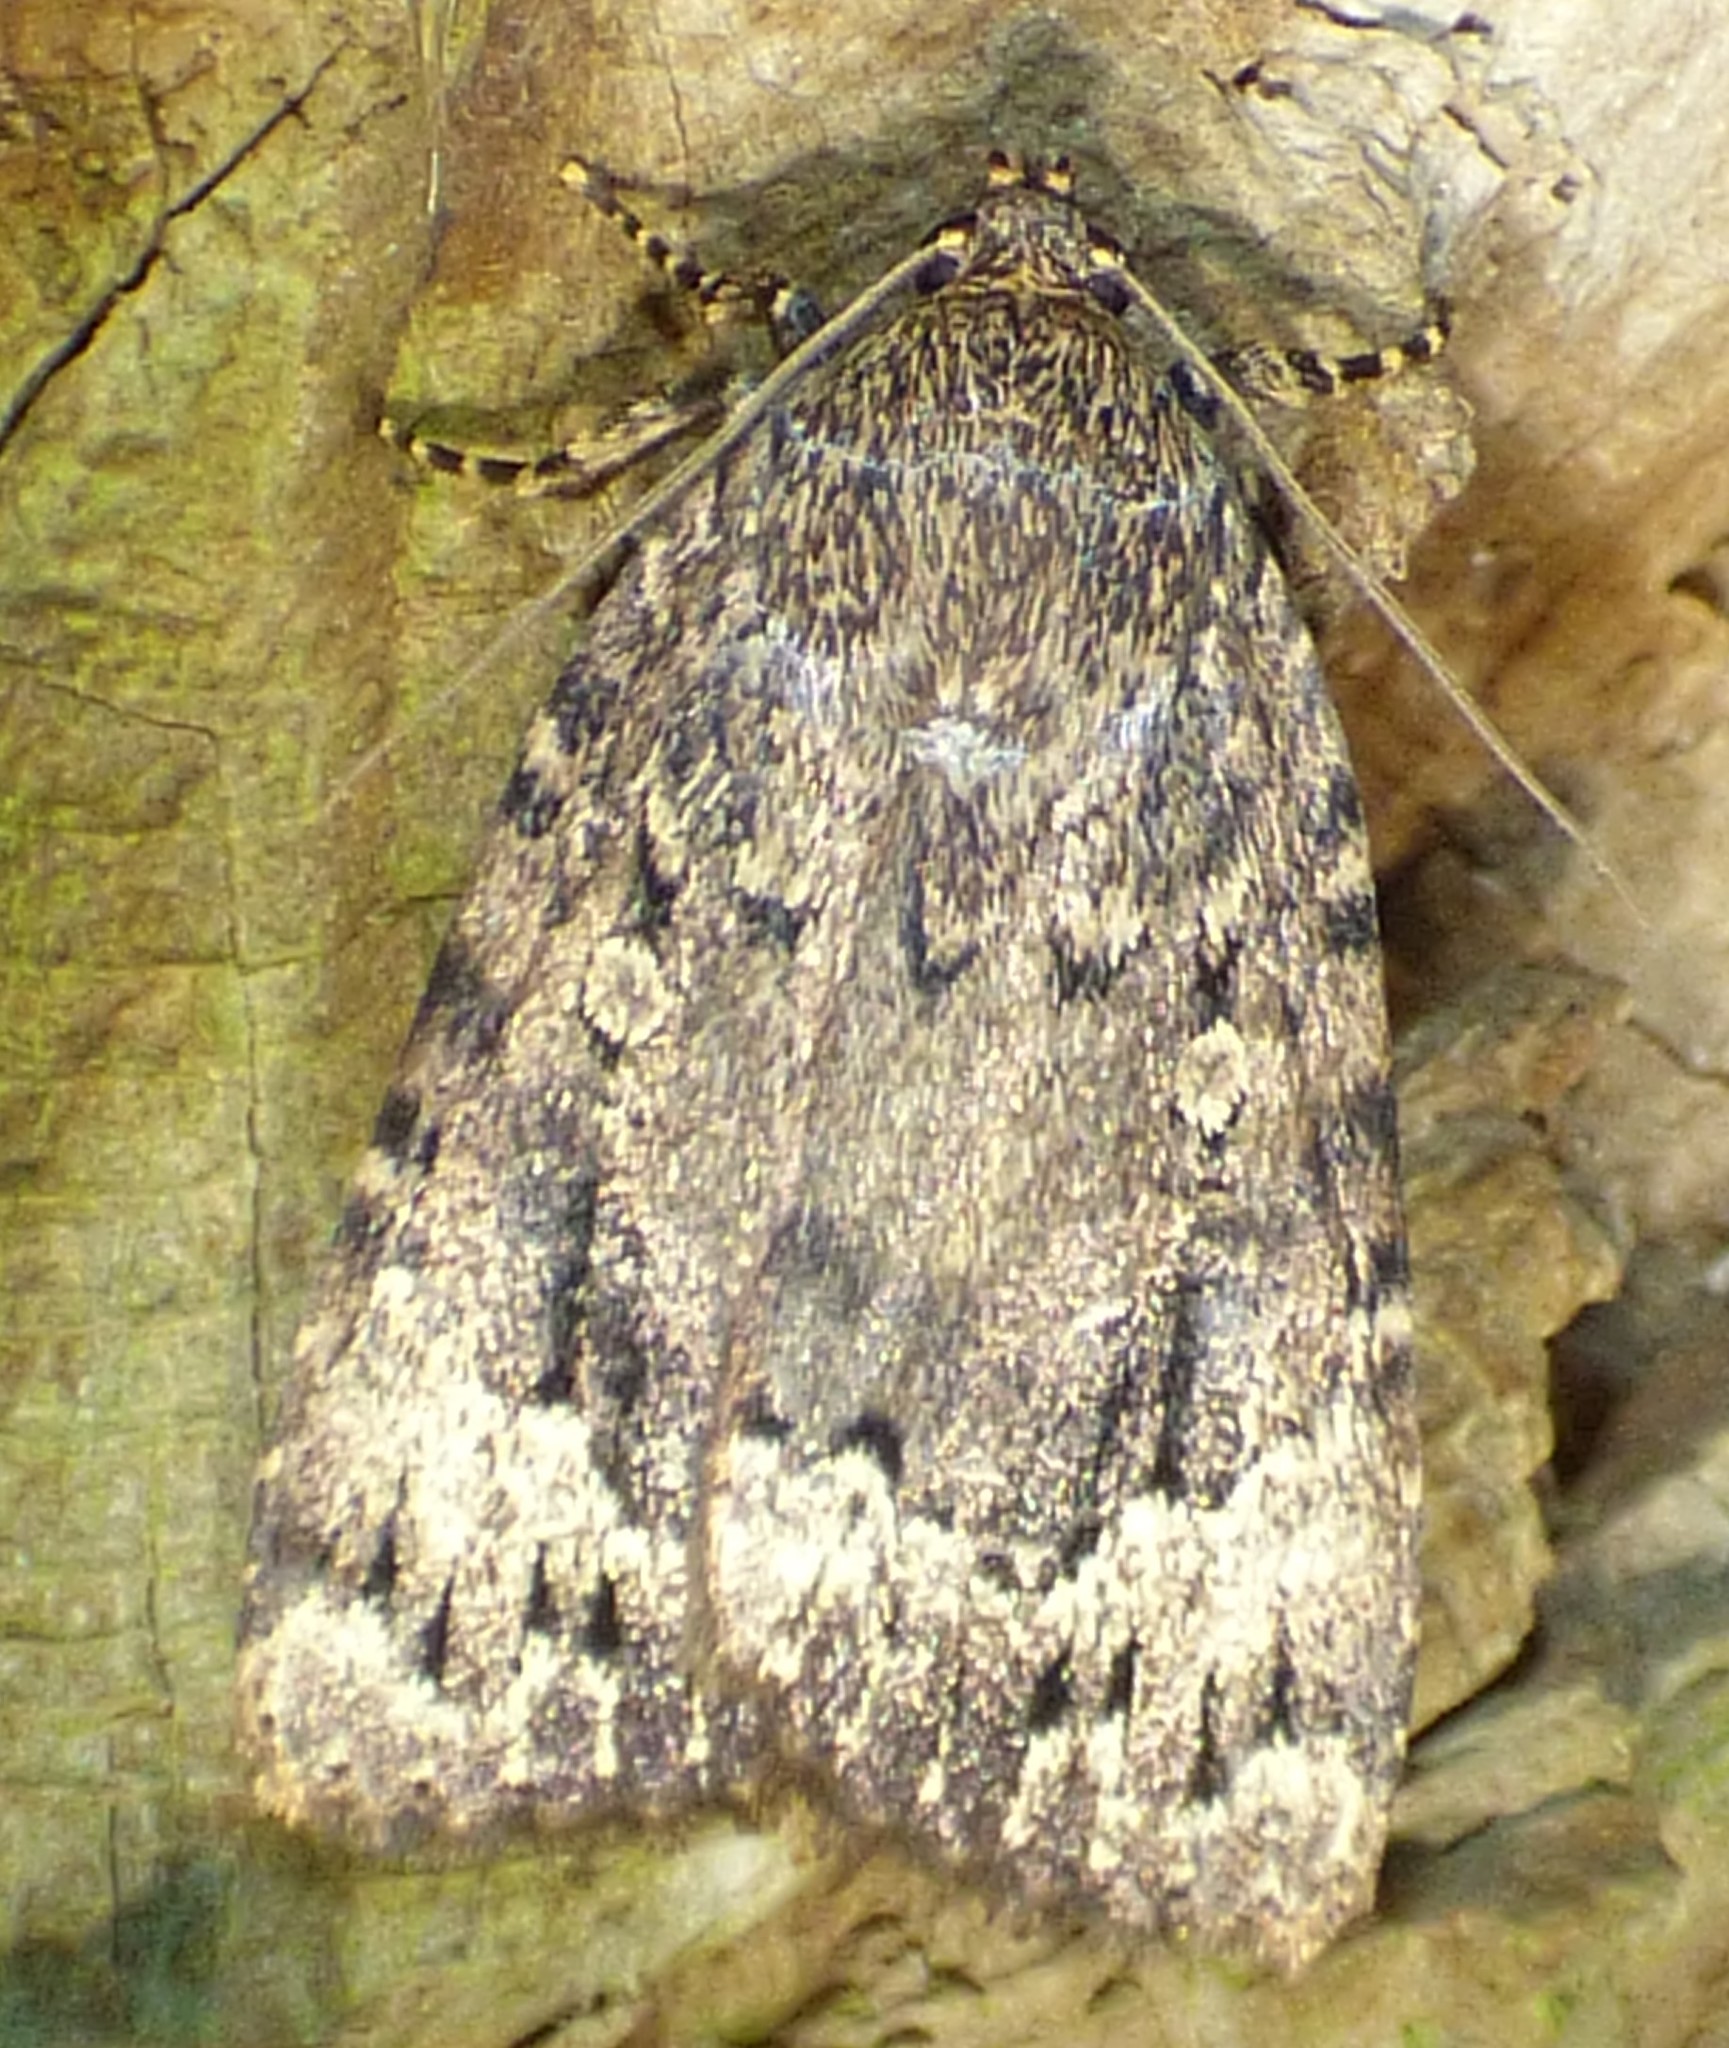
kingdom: Animalia
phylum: Arthropoda
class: Insecta
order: Lepidoptera
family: Noctuidae
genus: Amphipyra
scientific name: Amphipyra pyramidoides
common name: American copper underwing
